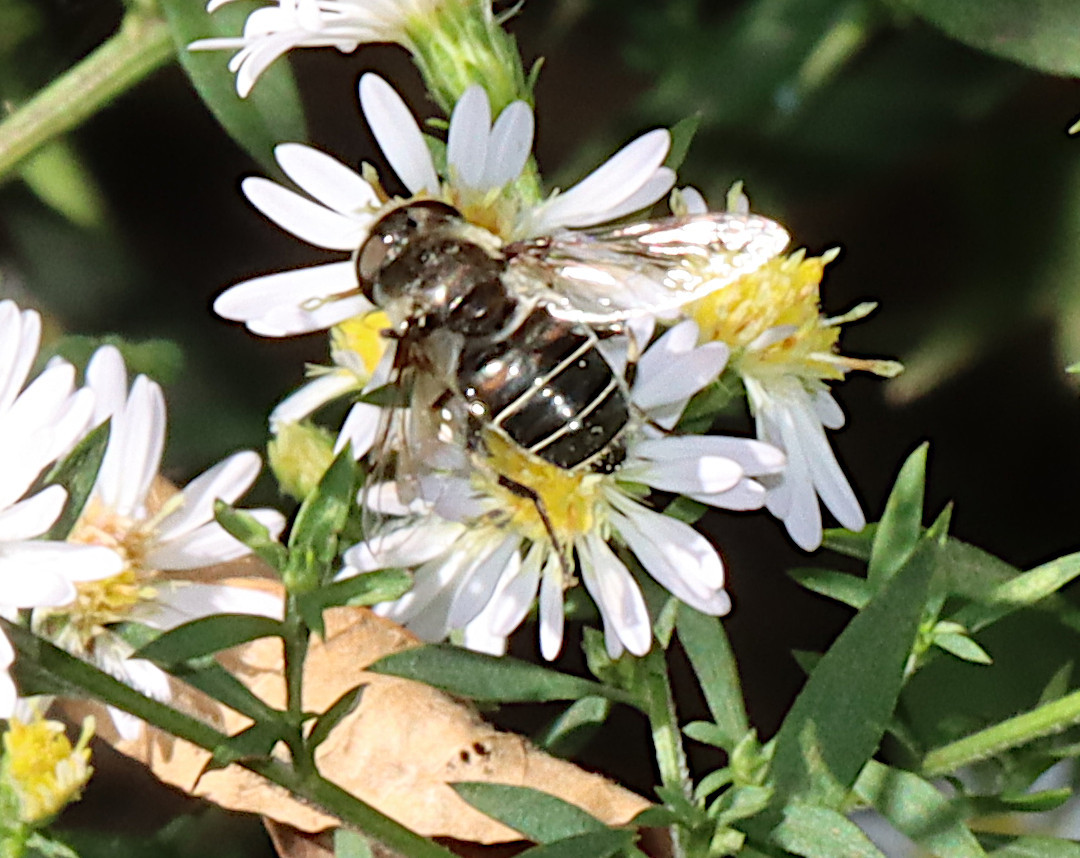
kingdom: Animalia
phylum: Arthropoda
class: Insecta
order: Diptera
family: Syrphidae
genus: Eristalis
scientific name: Eristalis dimidiata
